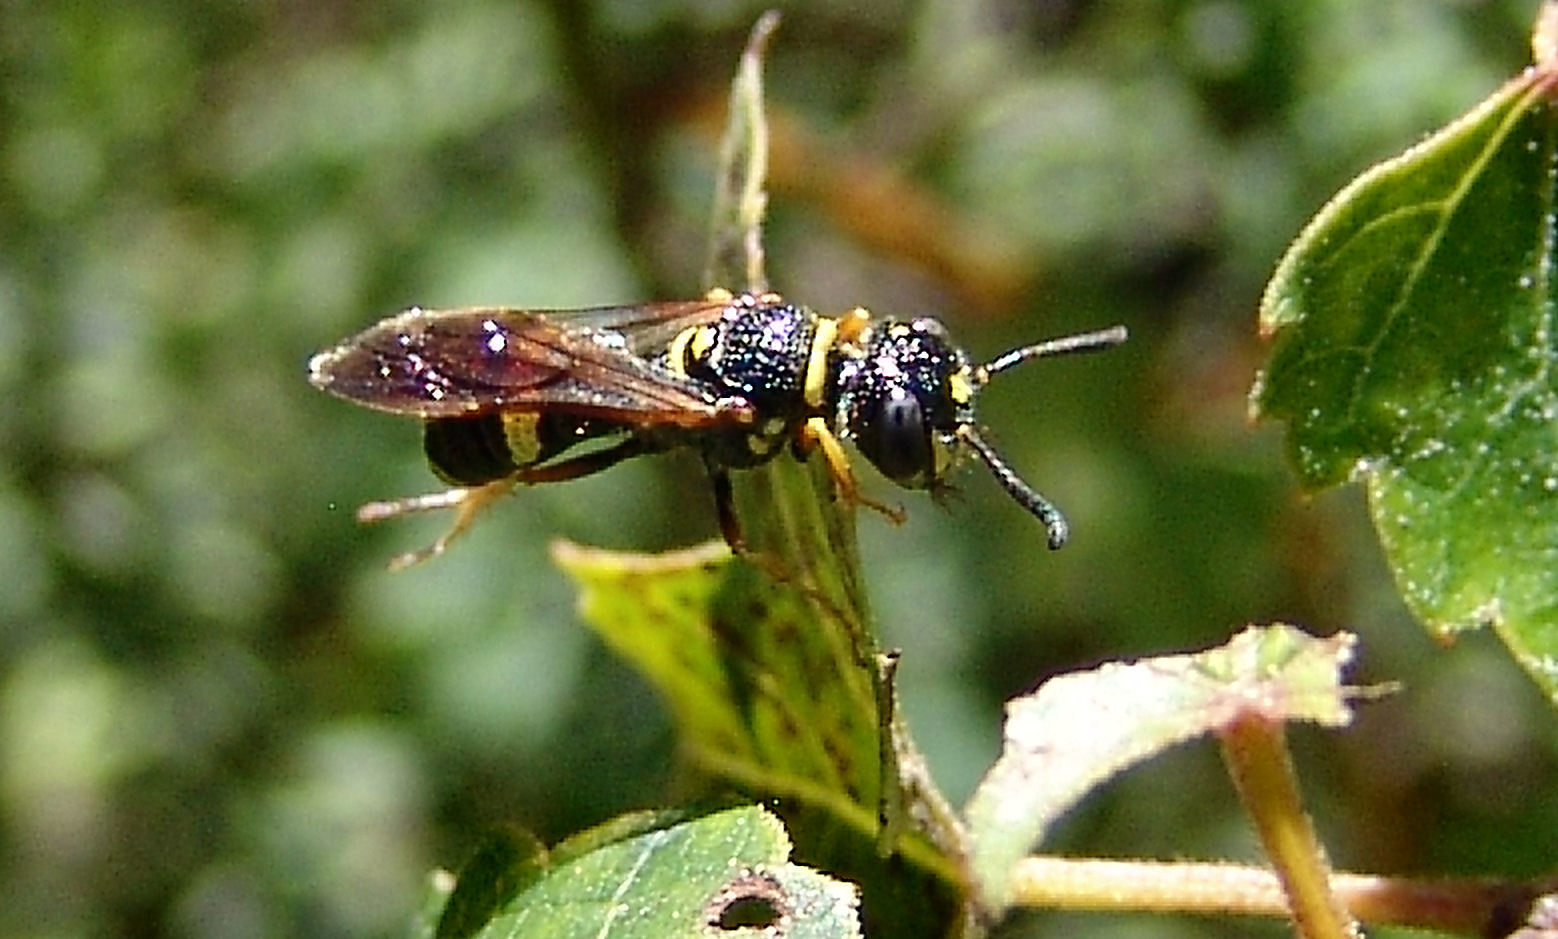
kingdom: Animalia
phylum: Arthropoda
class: Insecta
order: Hymenoptera
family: Crabronidae
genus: Philanthus
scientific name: Philanthus gibbosus
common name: Humped beewolf
